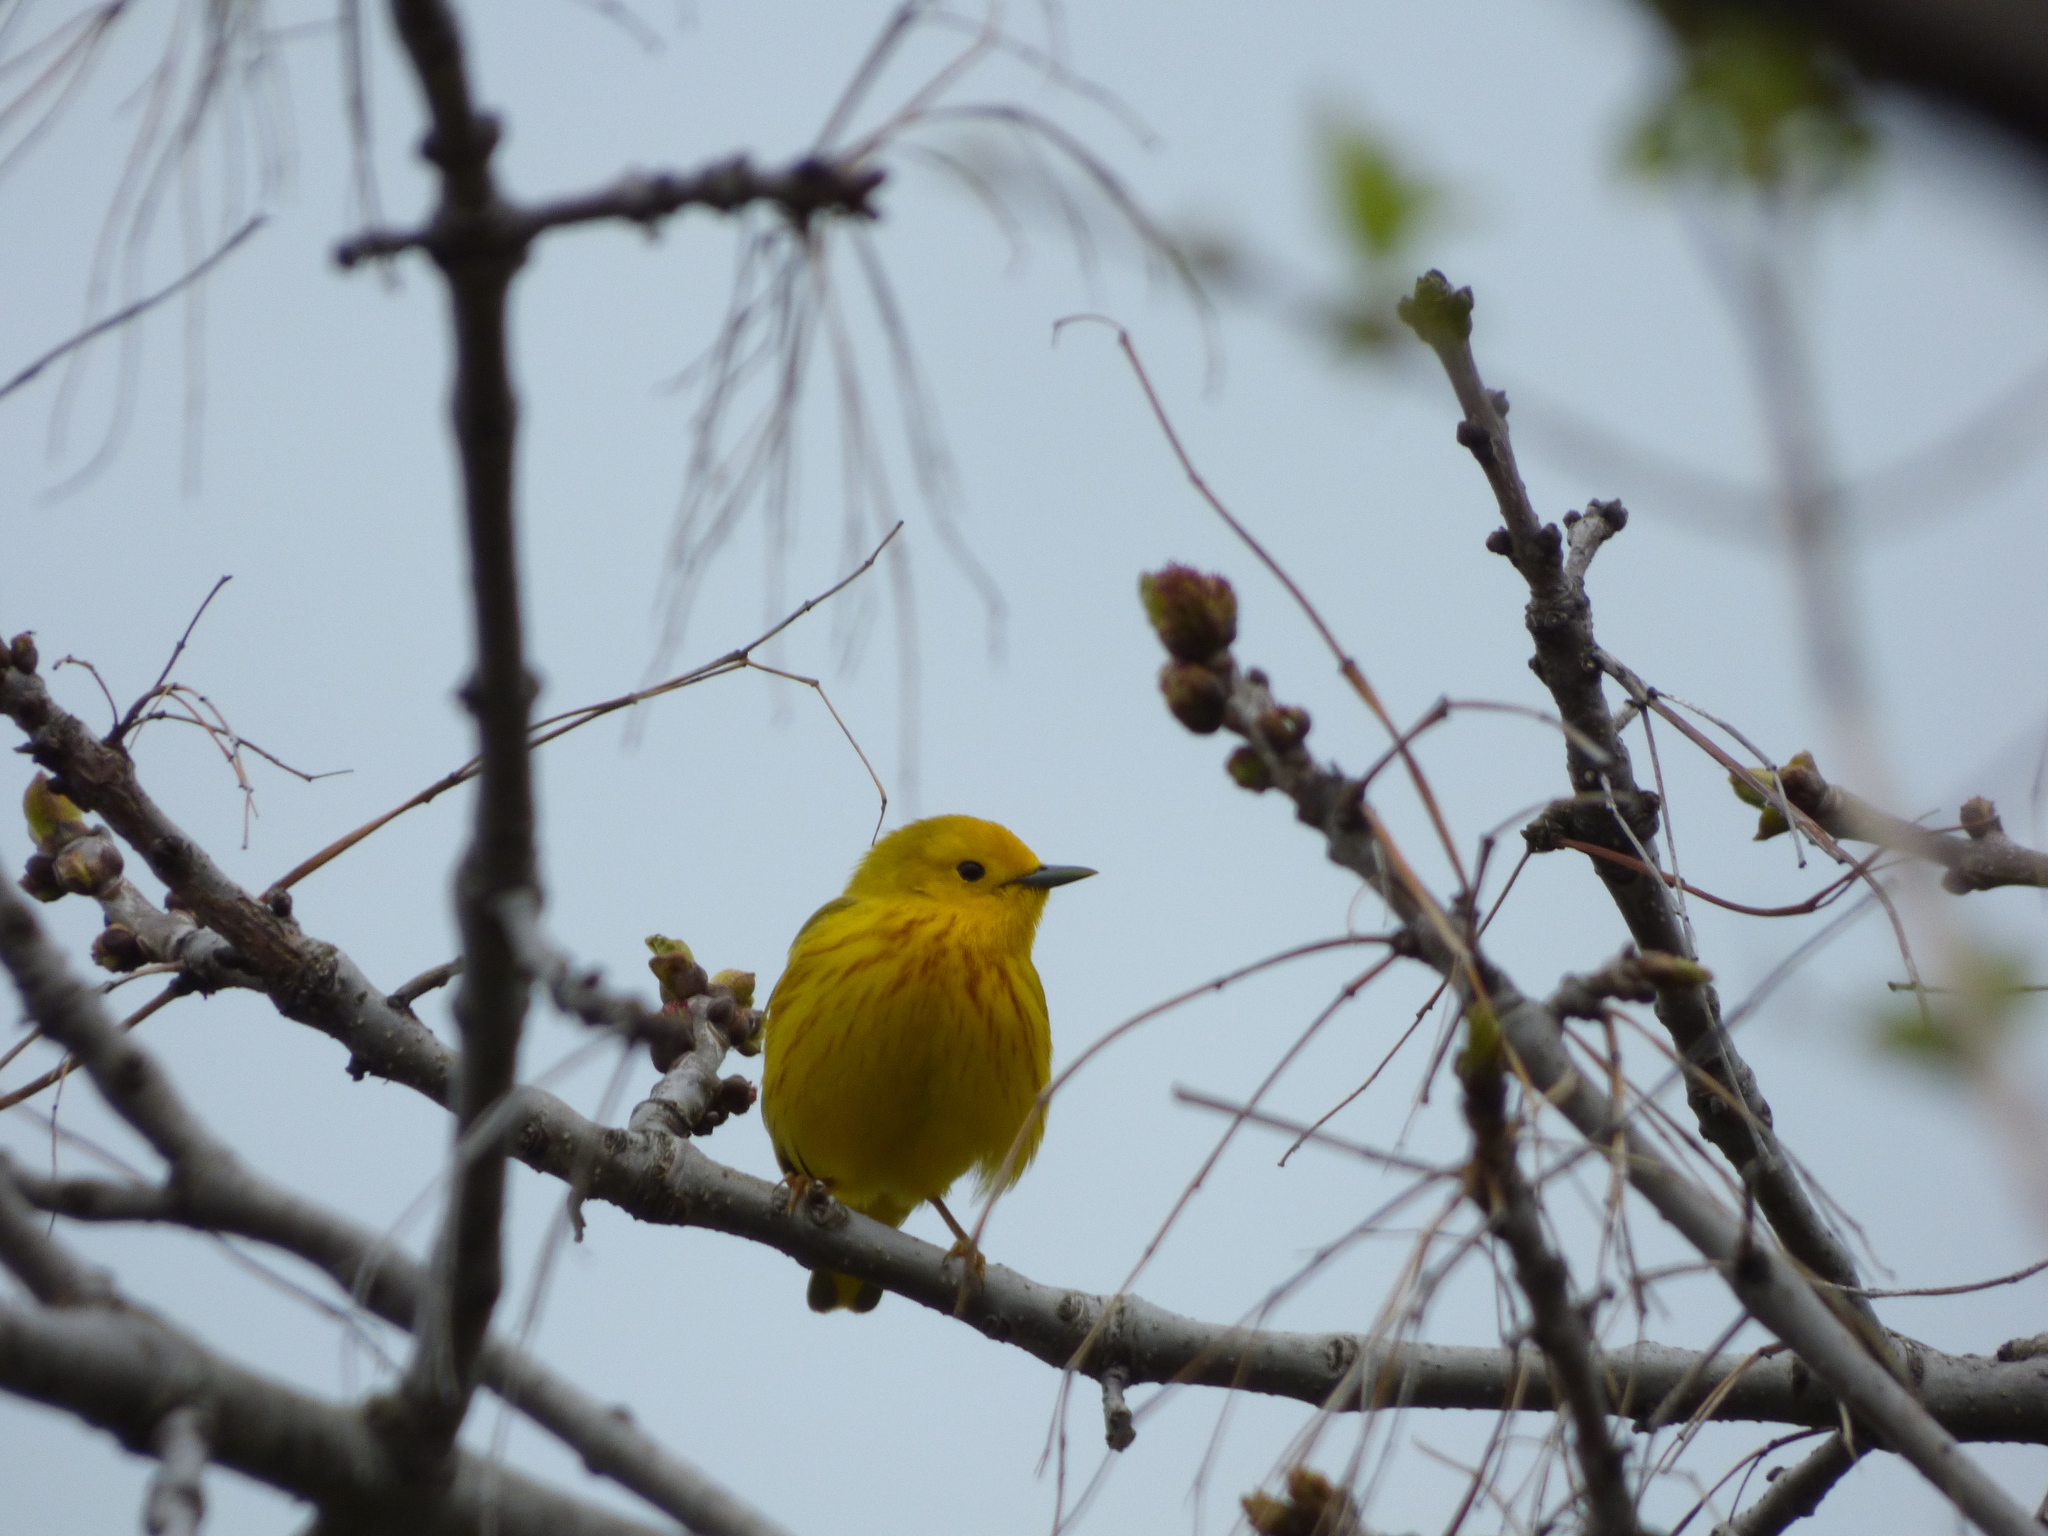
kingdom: Animalia
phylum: Chordata
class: Aves
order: Passeriformes
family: Parulidae
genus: Setophaga
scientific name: Setophaga petechia
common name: Yellow warbler
